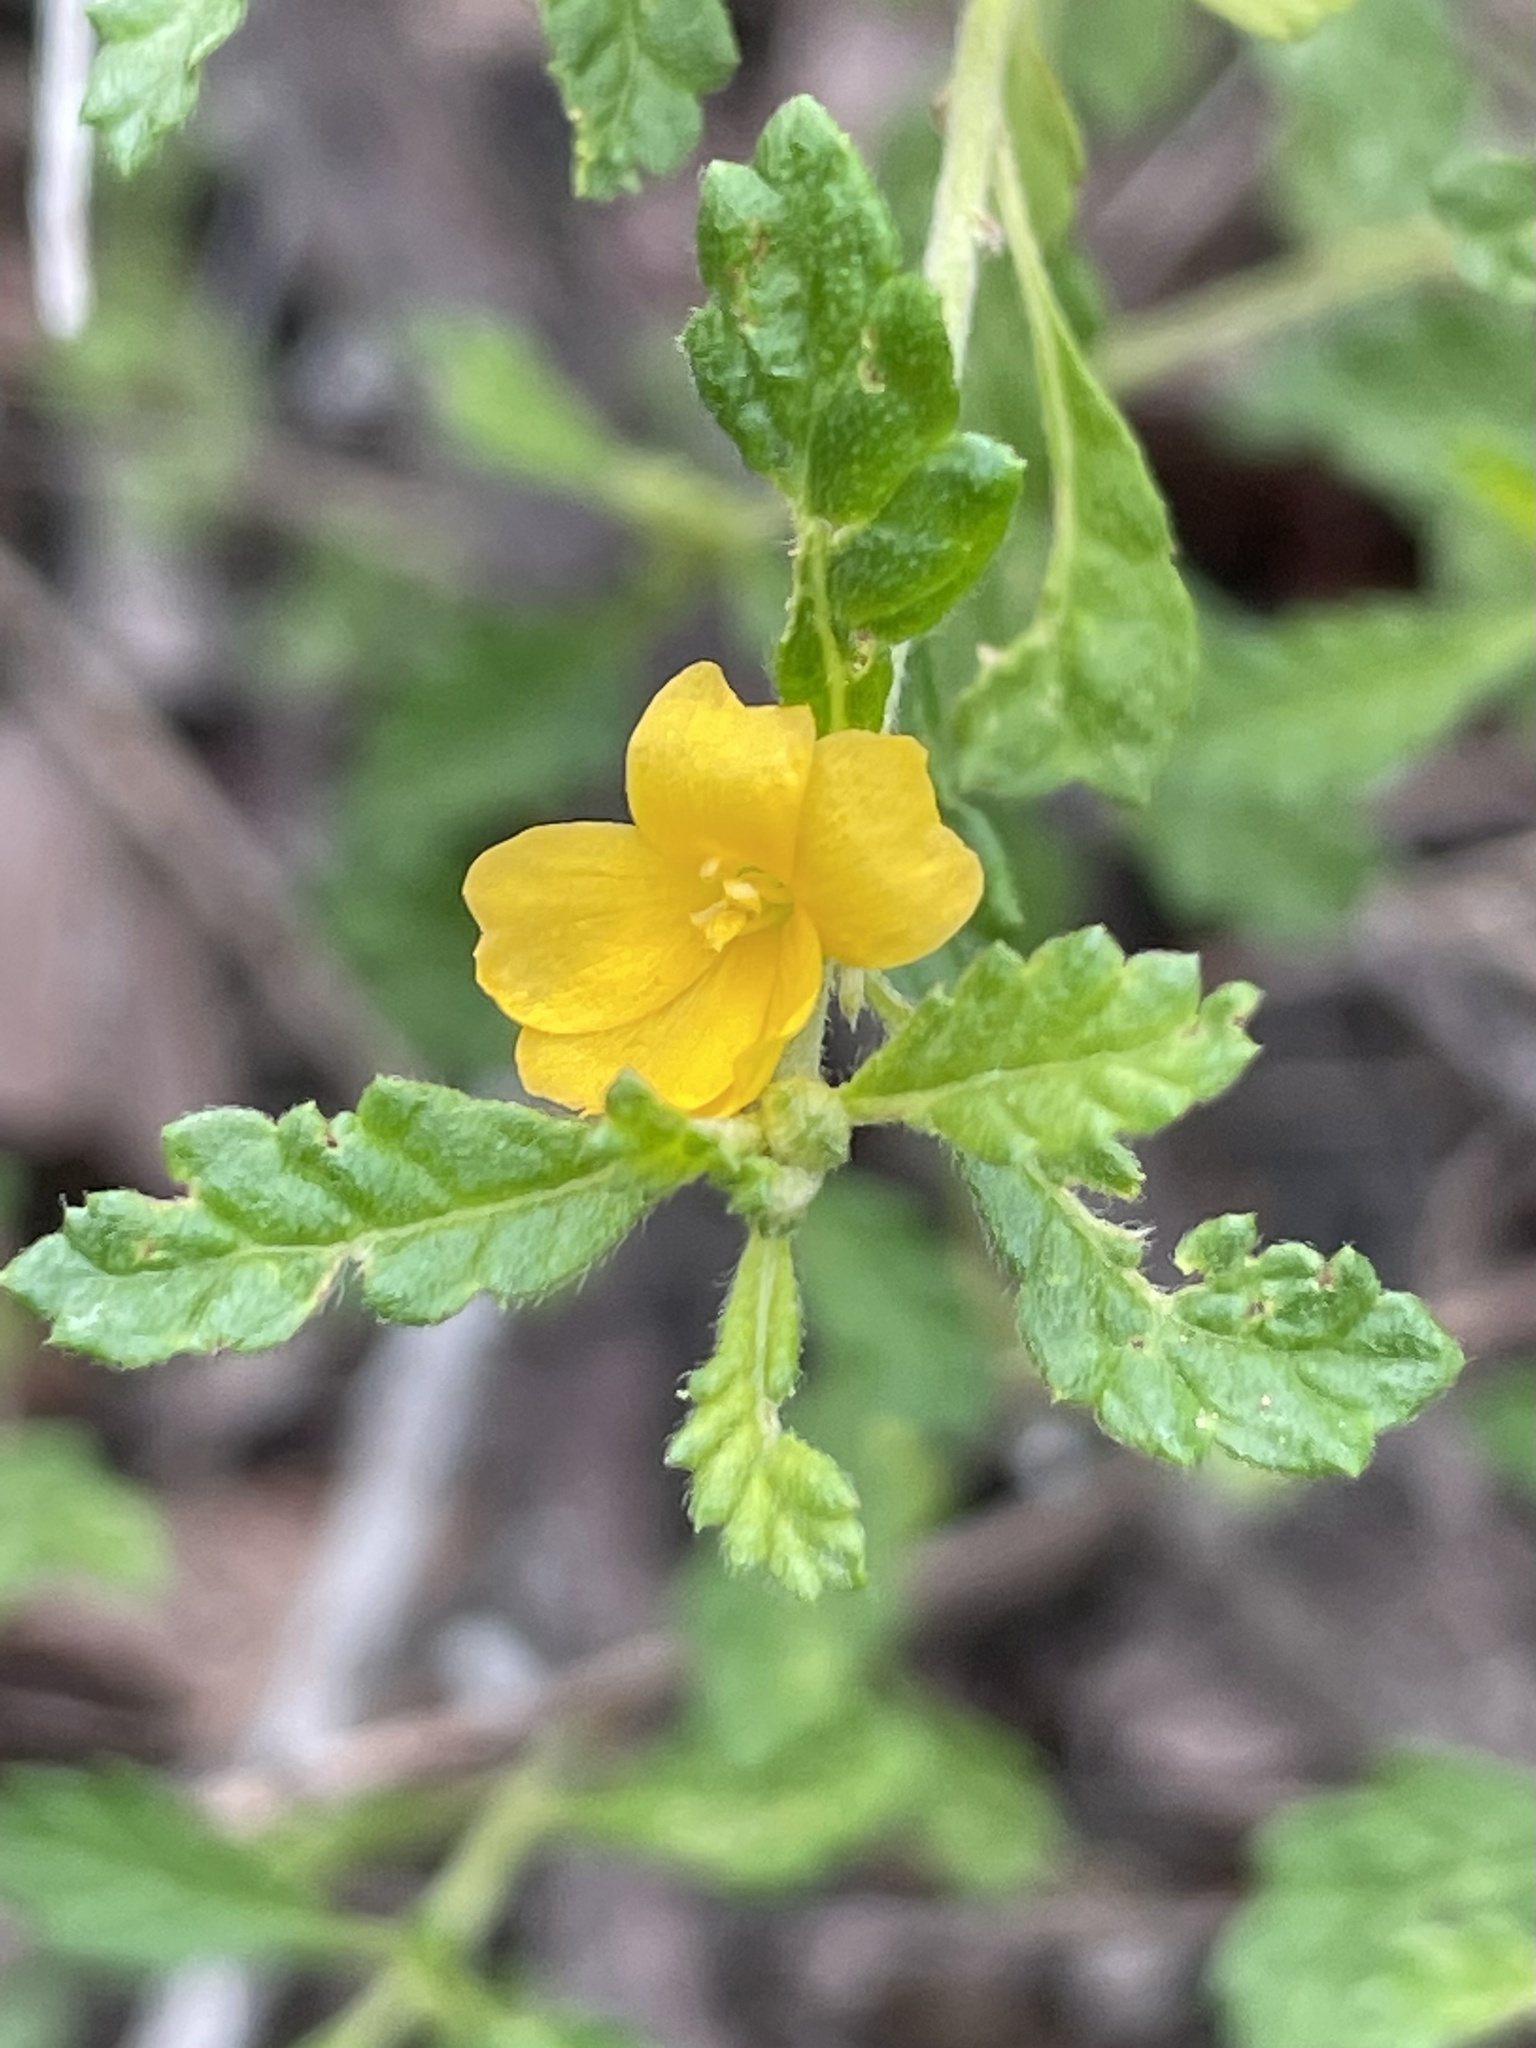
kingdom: Plantae
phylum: Tracheophyta
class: Magnoliopsida
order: Malpighiales
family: Turneraceae
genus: Turnera
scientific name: Turnera diffusa
